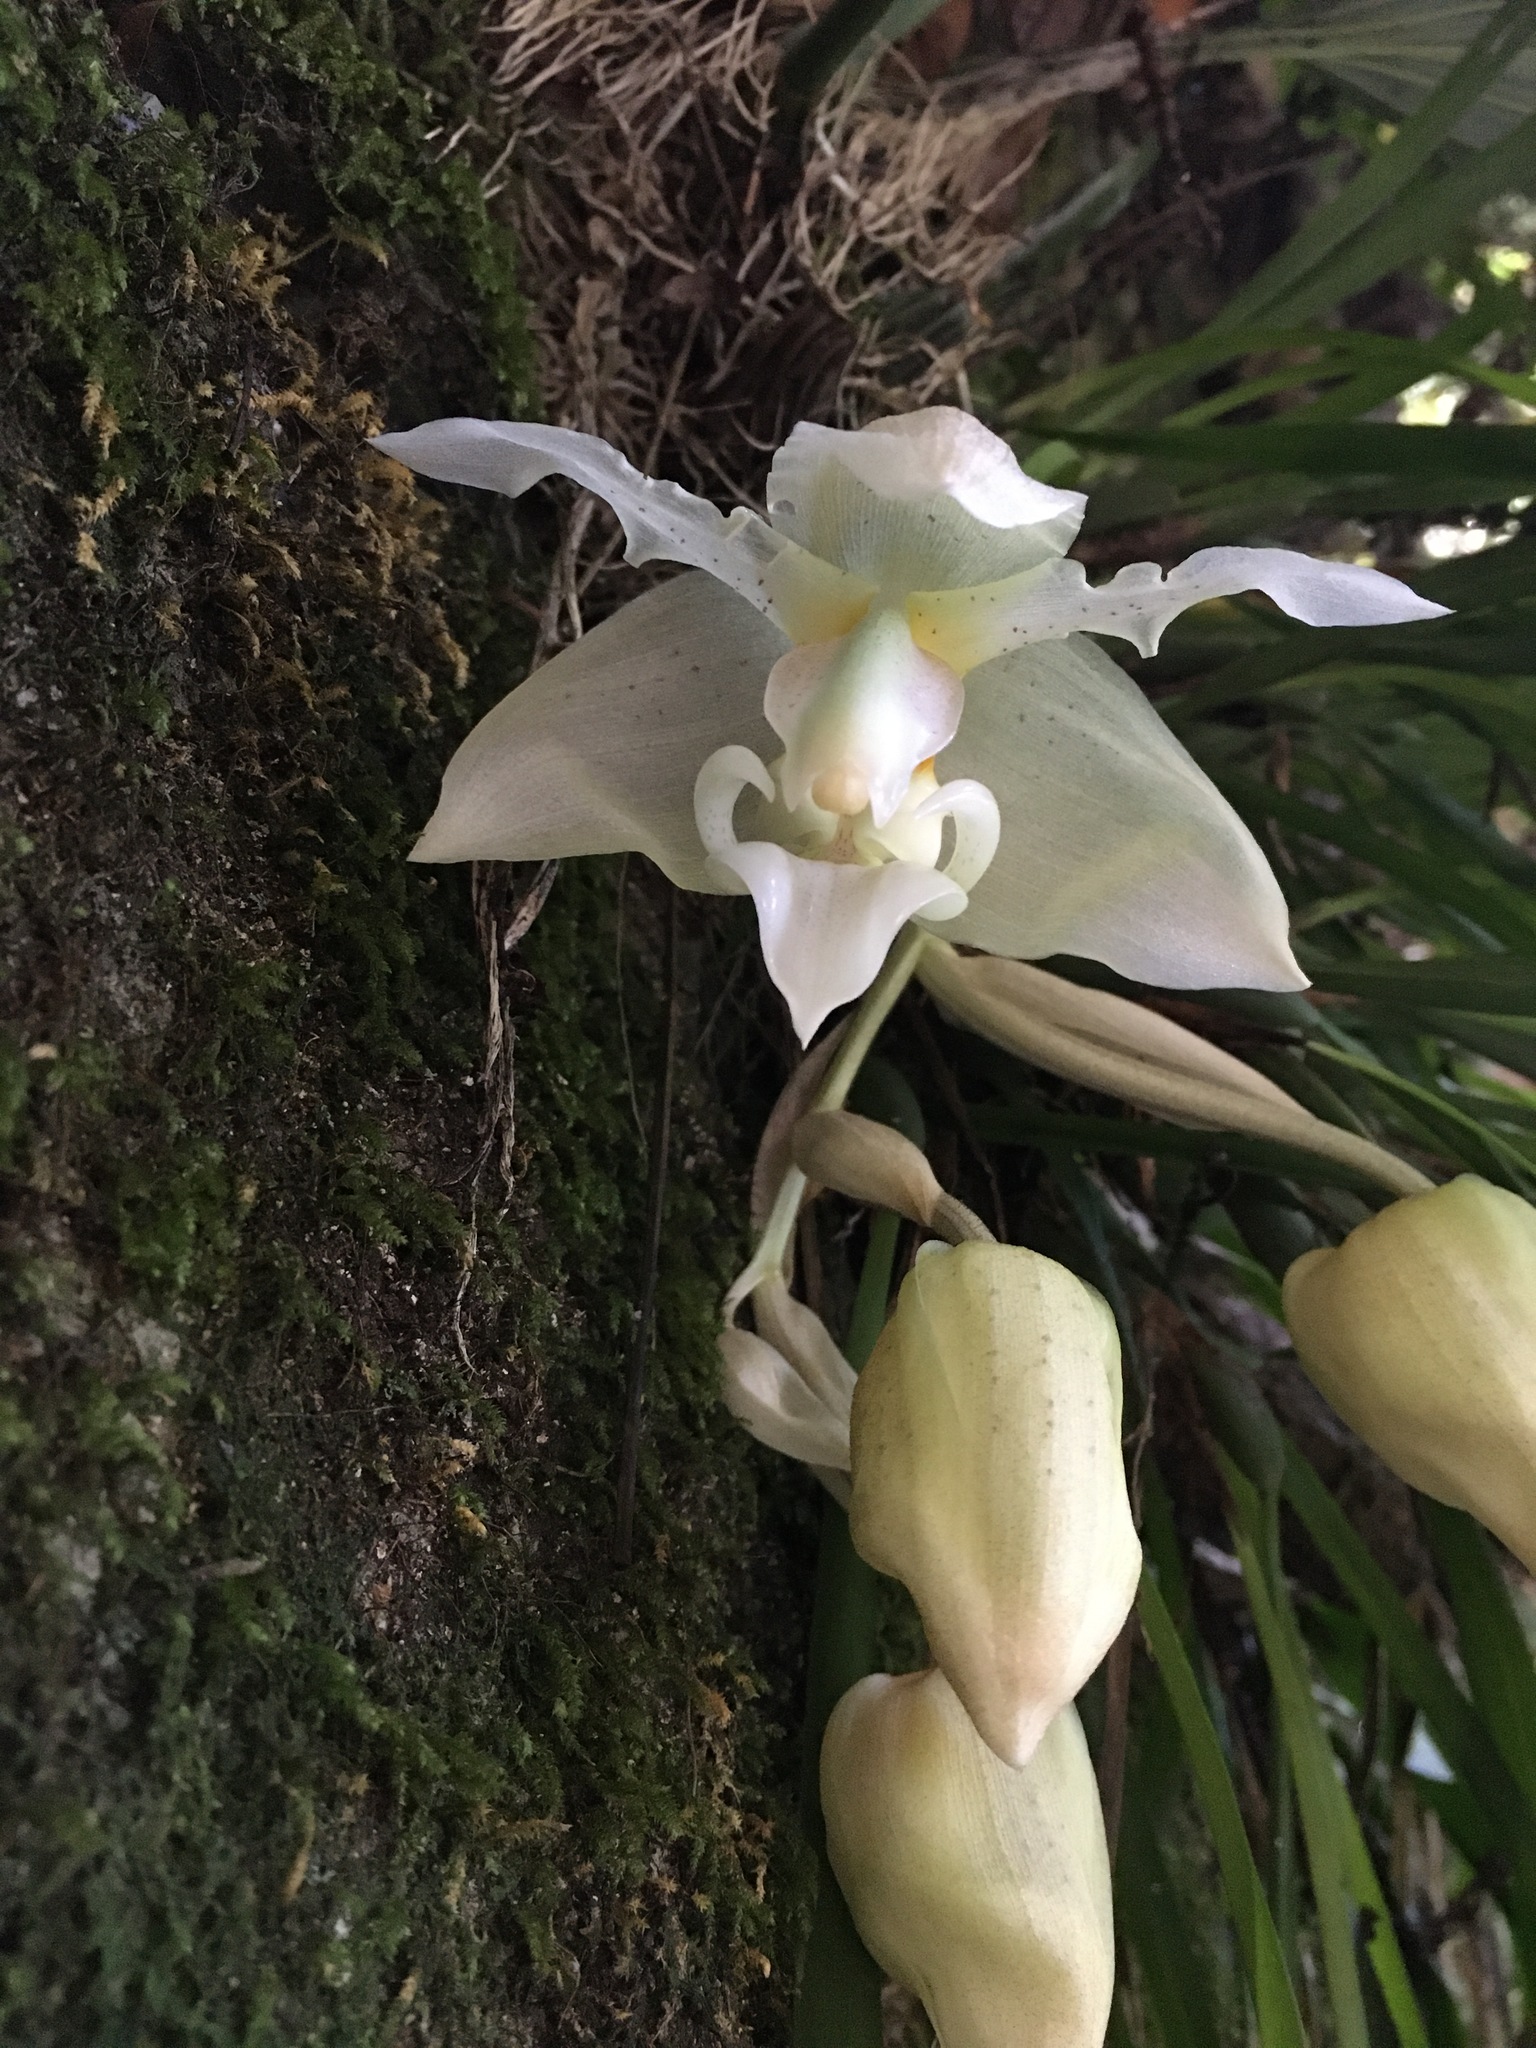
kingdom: Plantae
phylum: Tracheophyta
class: Liliopsida
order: Asparagales
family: Orchidaceae
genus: Stanhopea
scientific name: Stanhopea ruckeri
